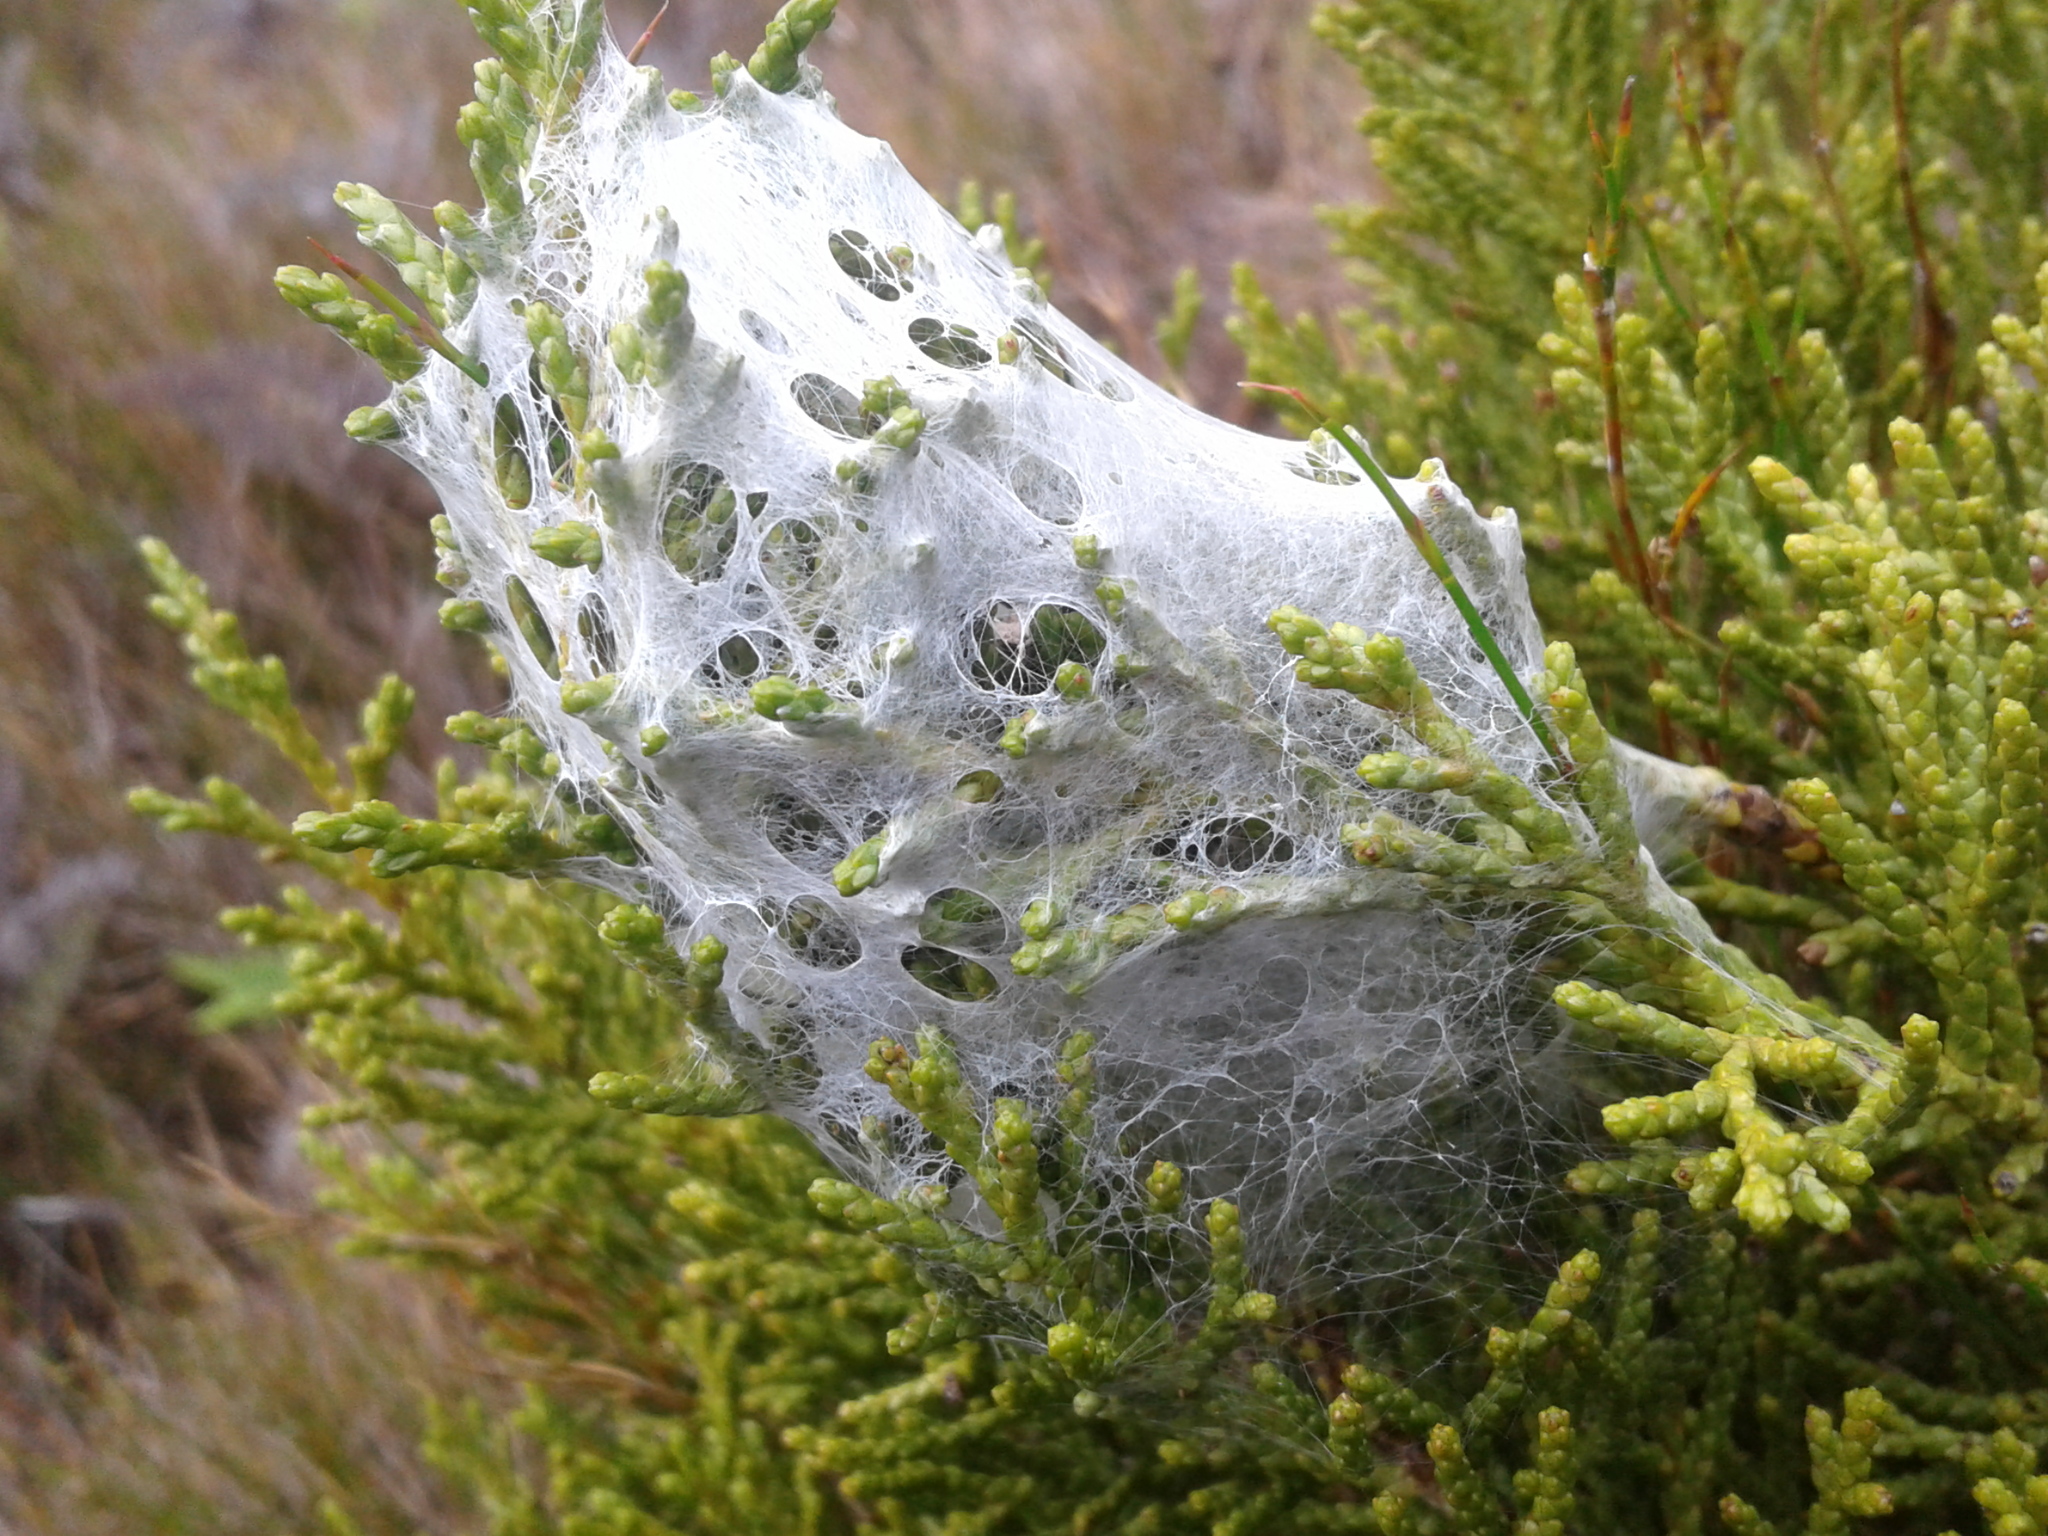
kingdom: Animalia
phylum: Arthropoda
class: Arachnida
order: Araneae
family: Pisauridae
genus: Dolomedes
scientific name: Dolomedes minor
